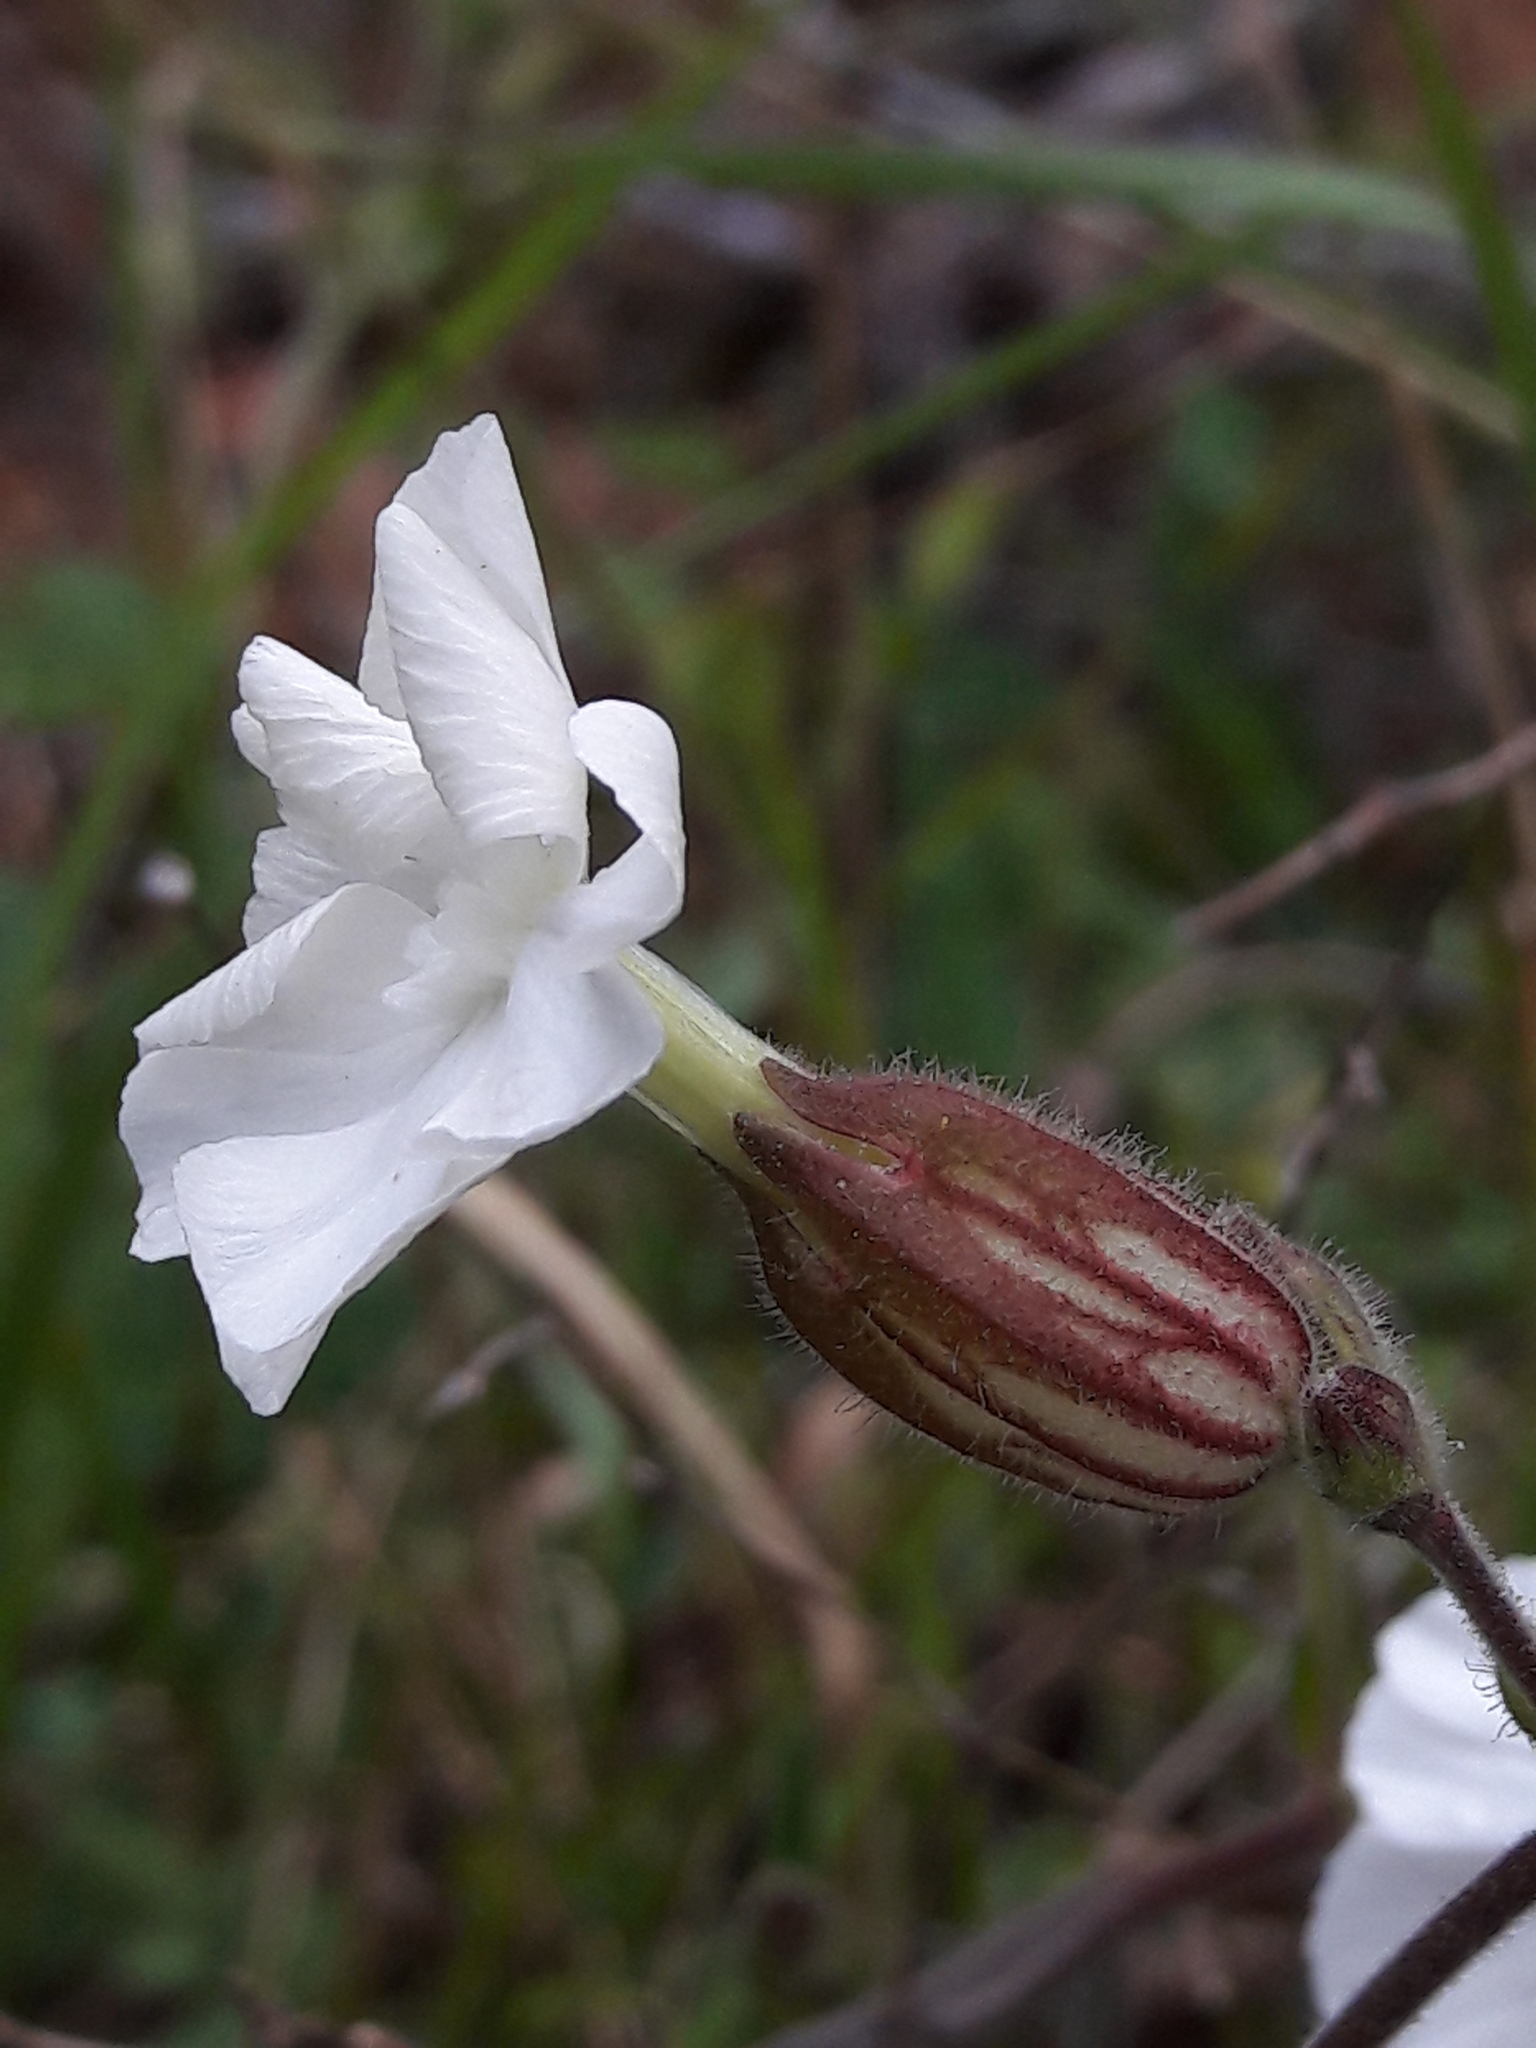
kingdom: Plantae
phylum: Tracheophyta
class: Magnoliopsida
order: Caryophyllales
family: Caryophyllaceae
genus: Silene
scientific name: Silene latifolia
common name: White campion
